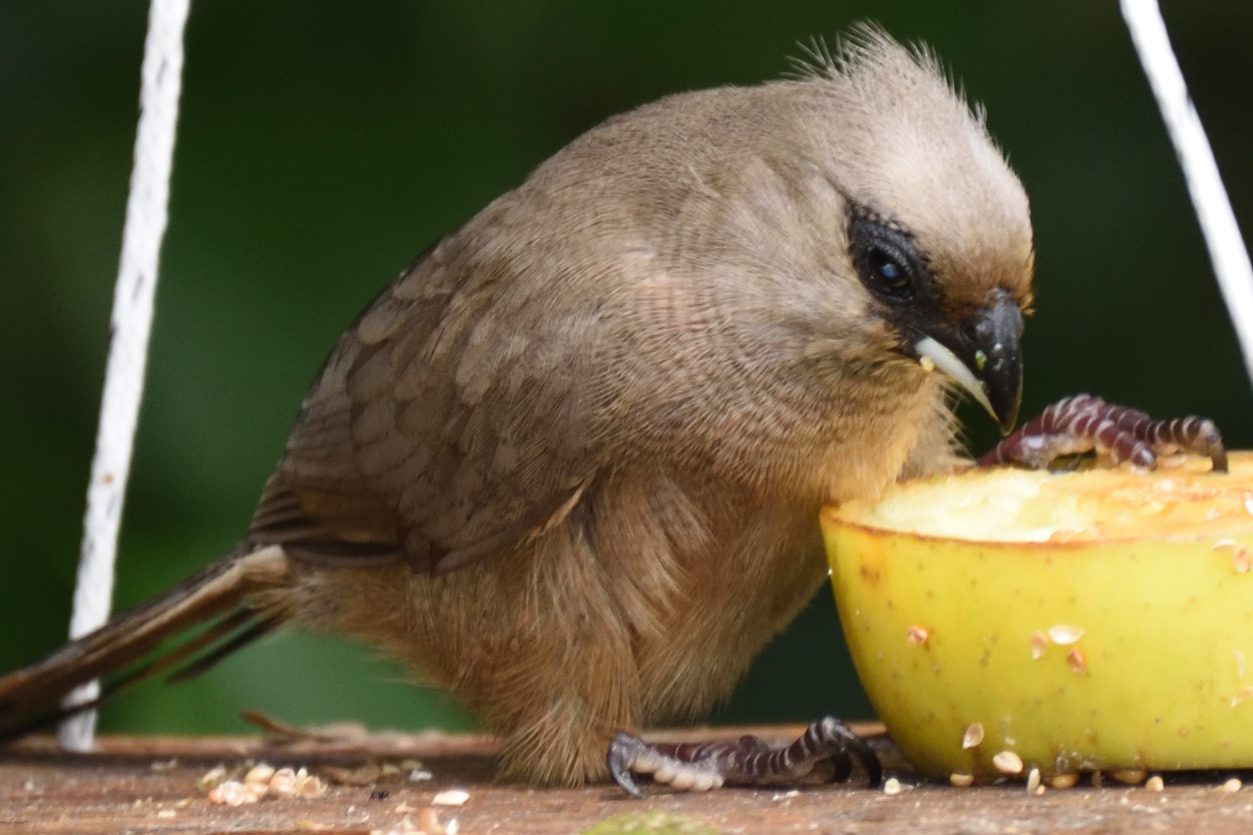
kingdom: Animalia
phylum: Chordata
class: Aves
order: Coliiformes
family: Coliidae
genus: Colius
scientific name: Colius striatus
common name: Speckled mousebird
